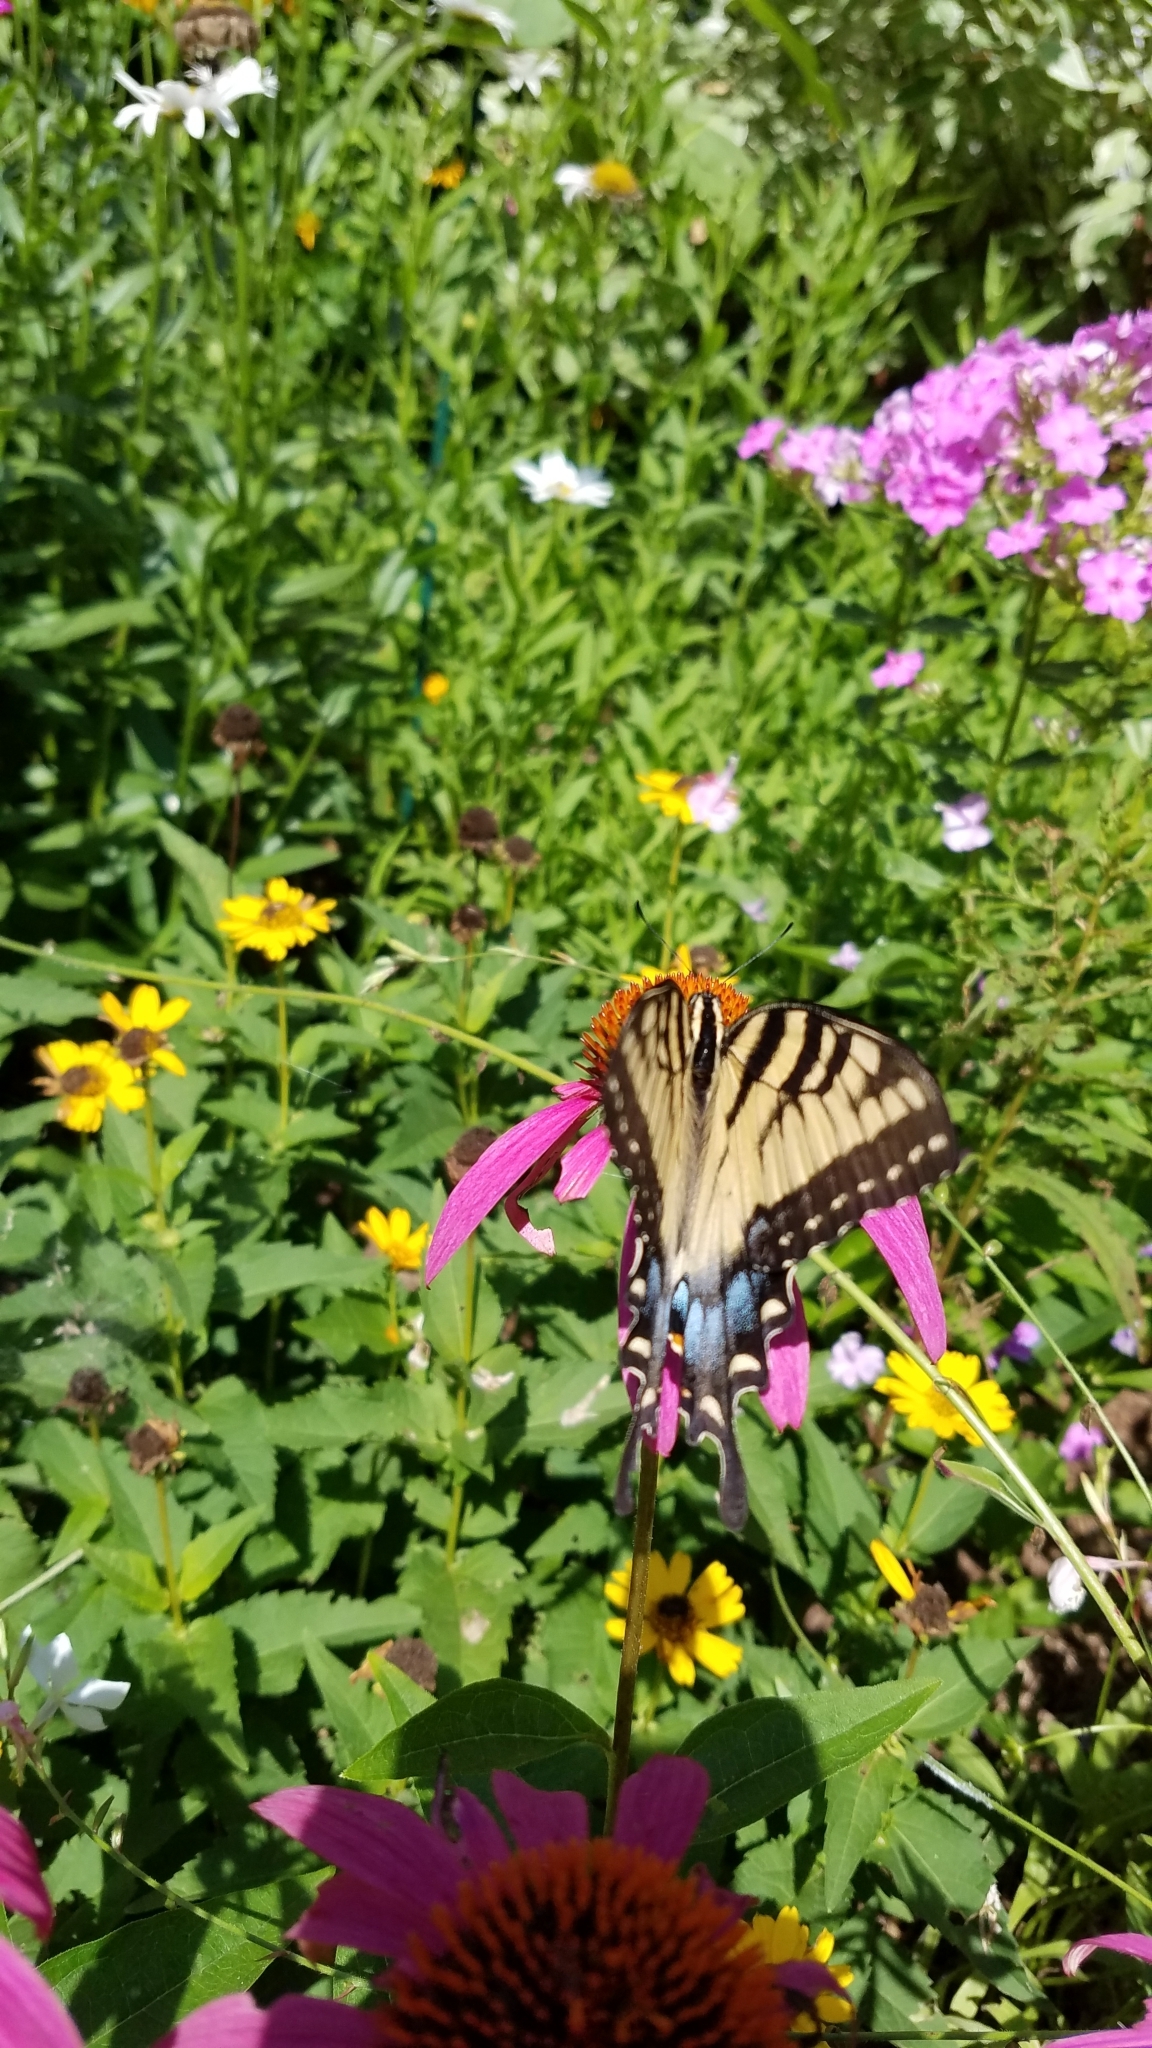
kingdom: Animalia
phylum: Arthropoda
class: Insecta
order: Lepidoptera
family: Papilionidae
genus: Papilio
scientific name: Papilio glaucus
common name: Tiger swallowtail
